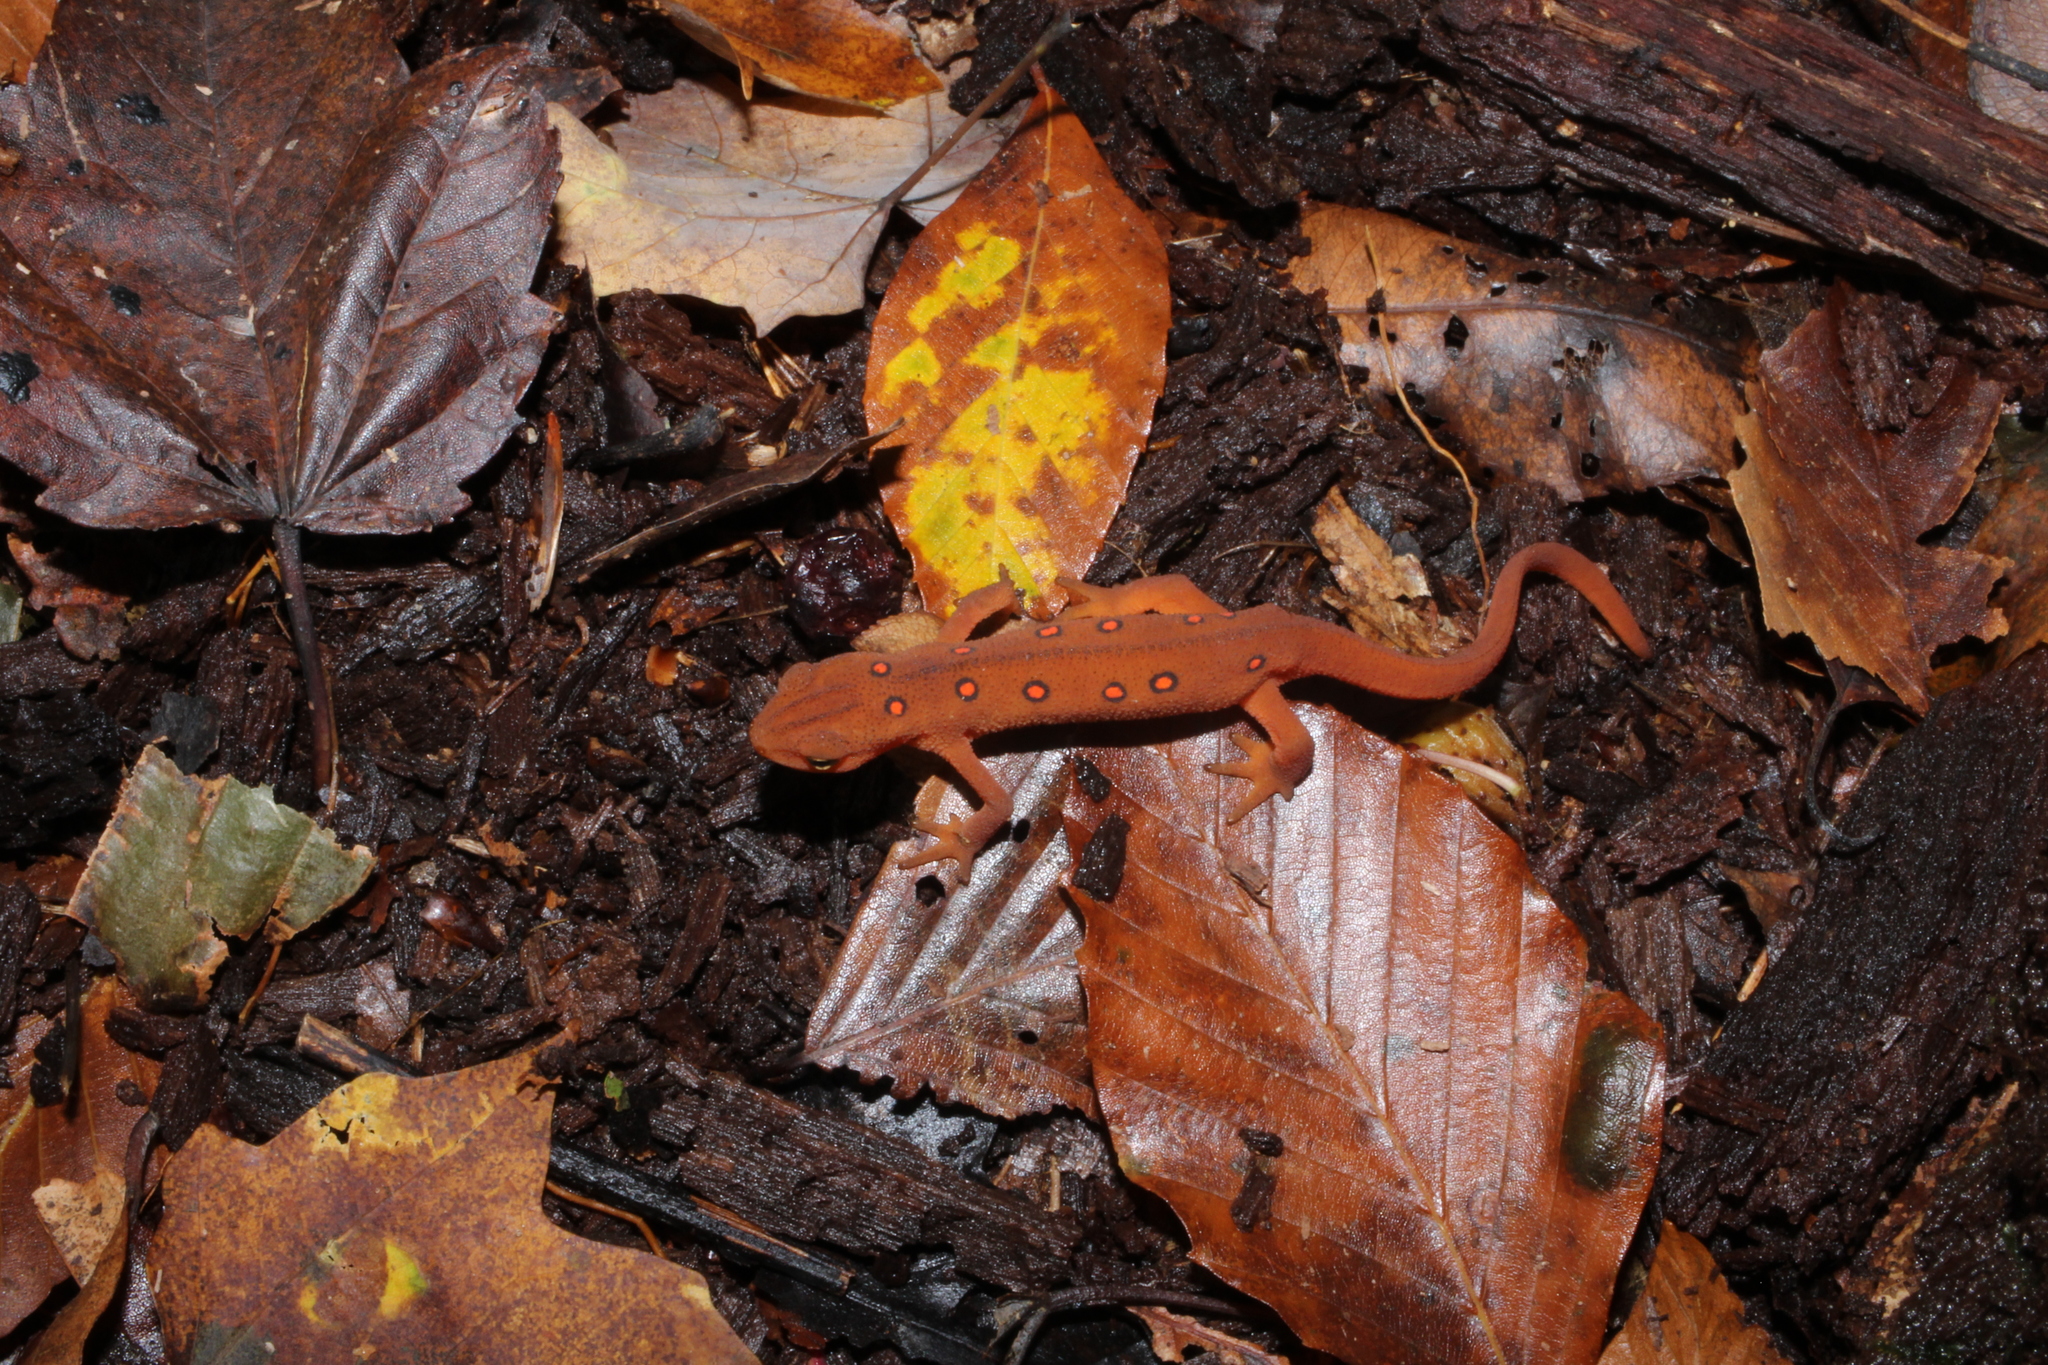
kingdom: Animalia
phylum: Chordata
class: Amphibia
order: Caudata
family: Salamandridae
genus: Notophthalmus
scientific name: Notophthalmus viridescens
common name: Eastern newt
